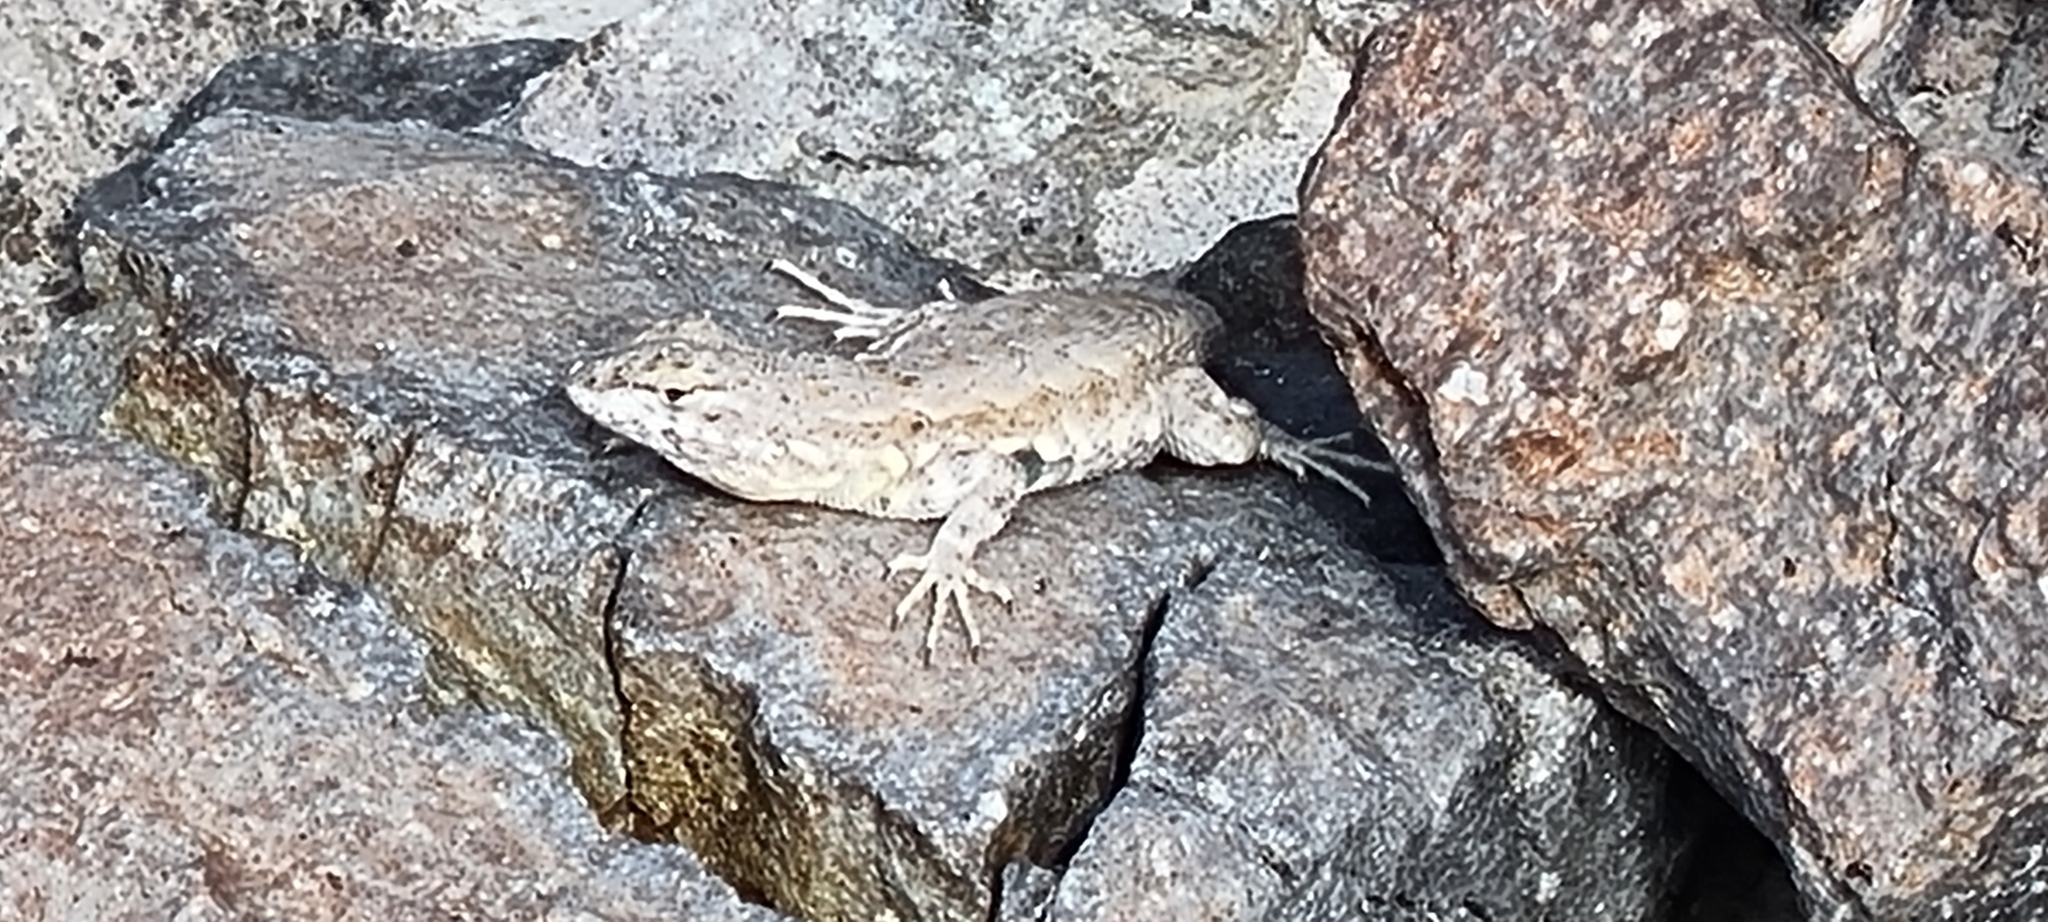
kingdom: Animalia
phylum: Chordata
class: Squamata
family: Phrynosomatidae
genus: Uta
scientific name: Uta stansburiana
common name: Side-blotched lizard
